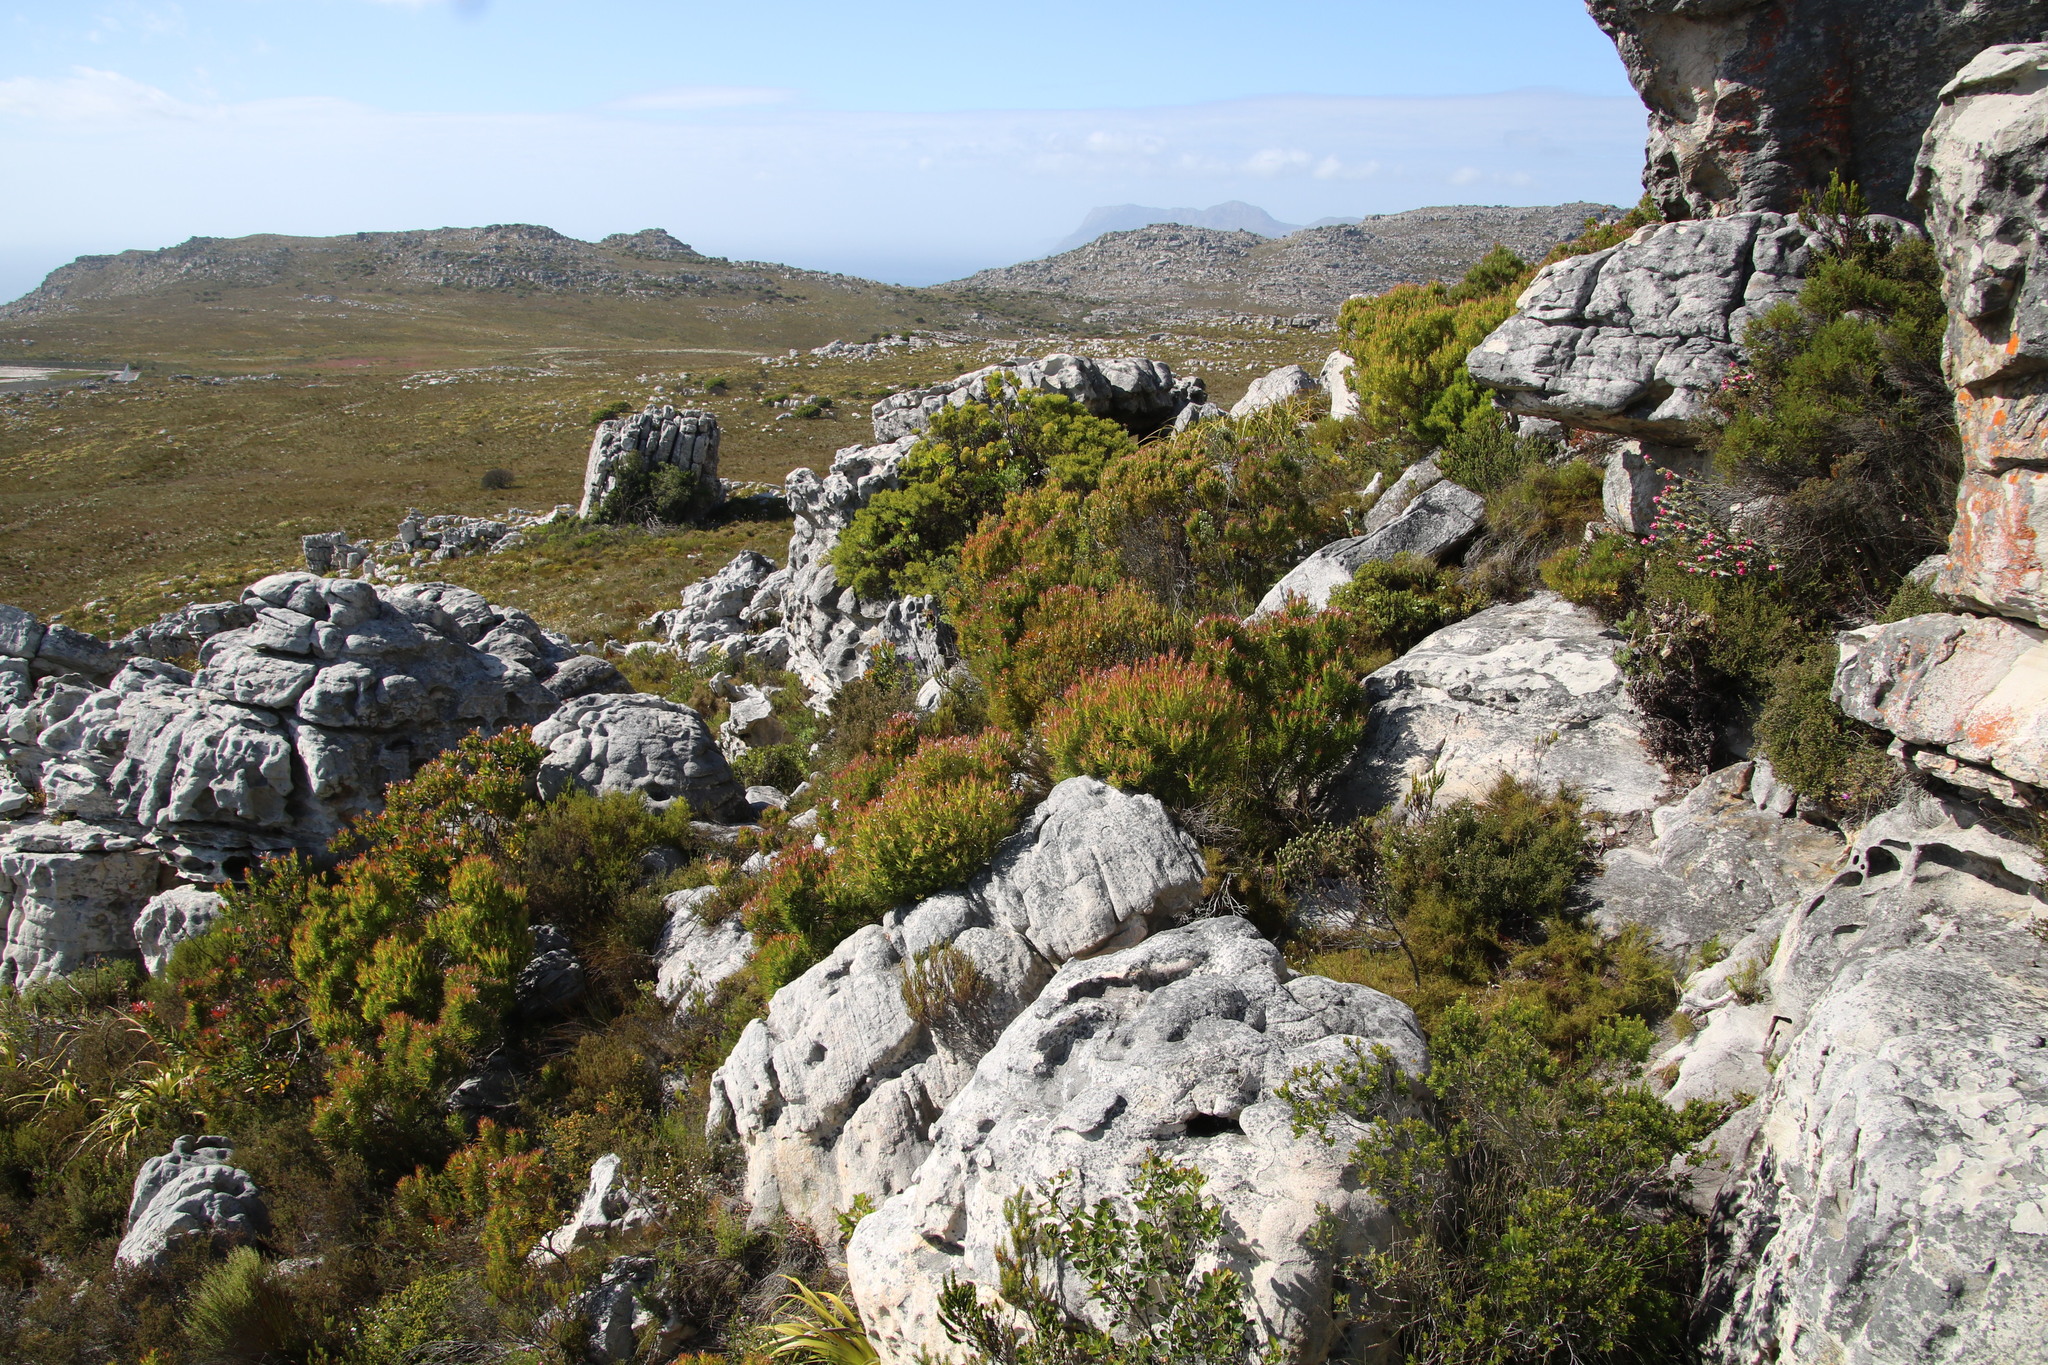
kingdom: Plantae
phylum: Tracheophyta
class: Magnoliopsida
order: Proteales
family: Proteaceae
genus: Leucadendron
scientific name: Leucadendron xanthoconus
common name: Sickle-leaf conebush
